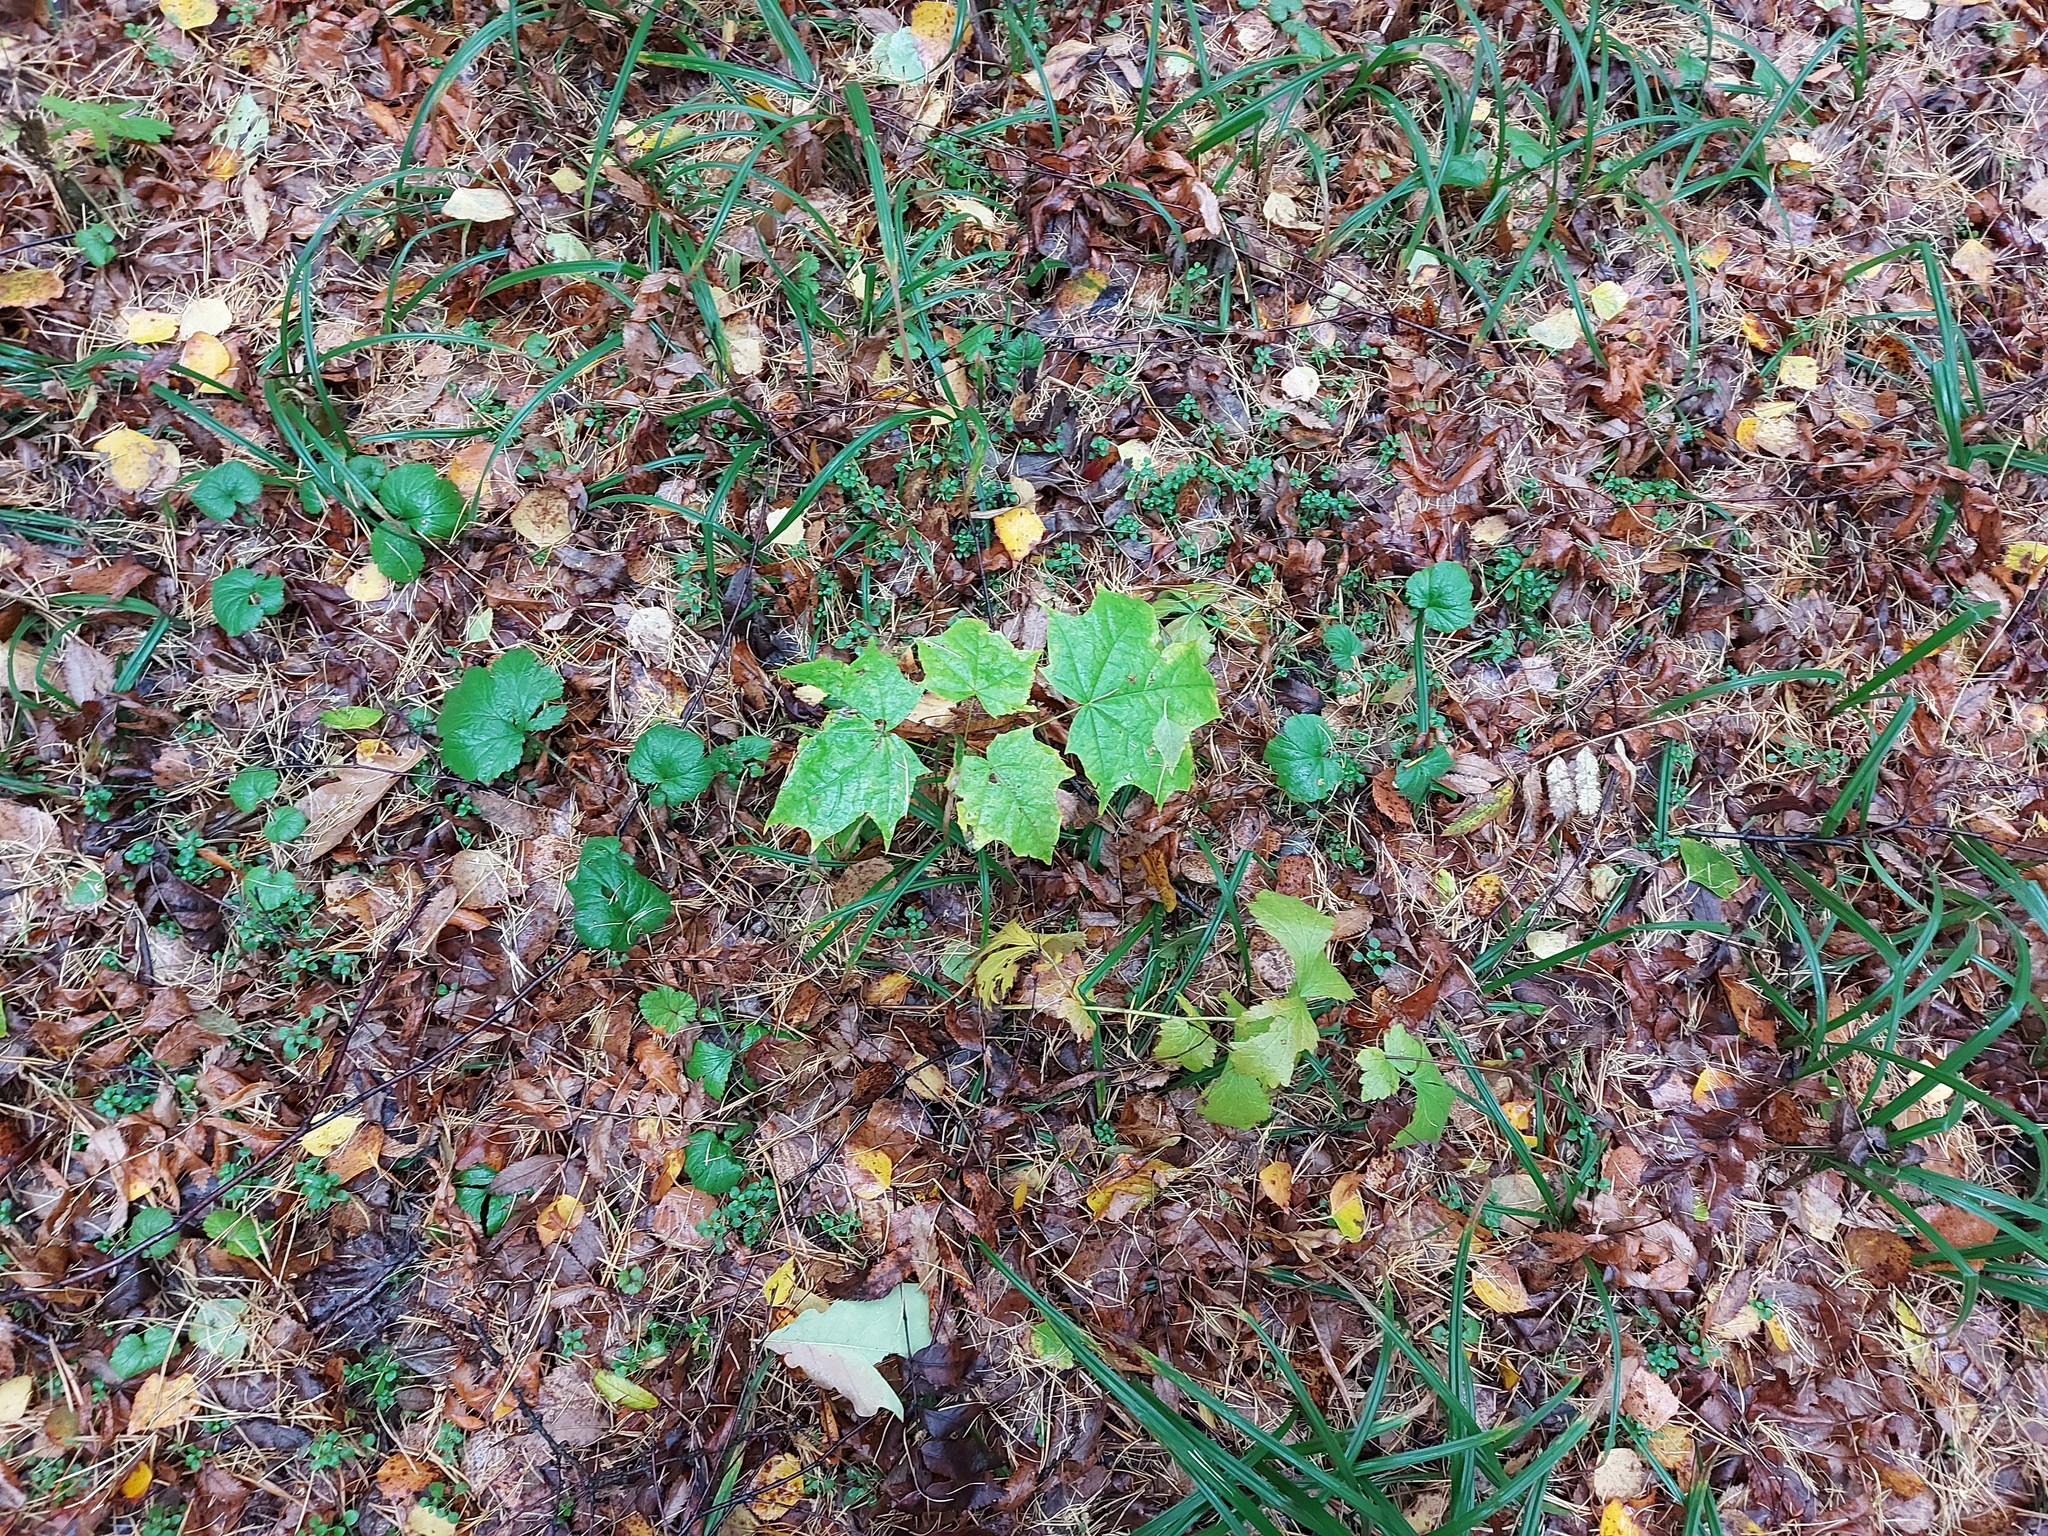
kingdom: Plantae
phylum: Tracheophyta
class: Magnoliopsida
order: Sapindales
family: Sapindaceae
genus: Acer
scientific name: Acer platanoides
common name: Norway maple
